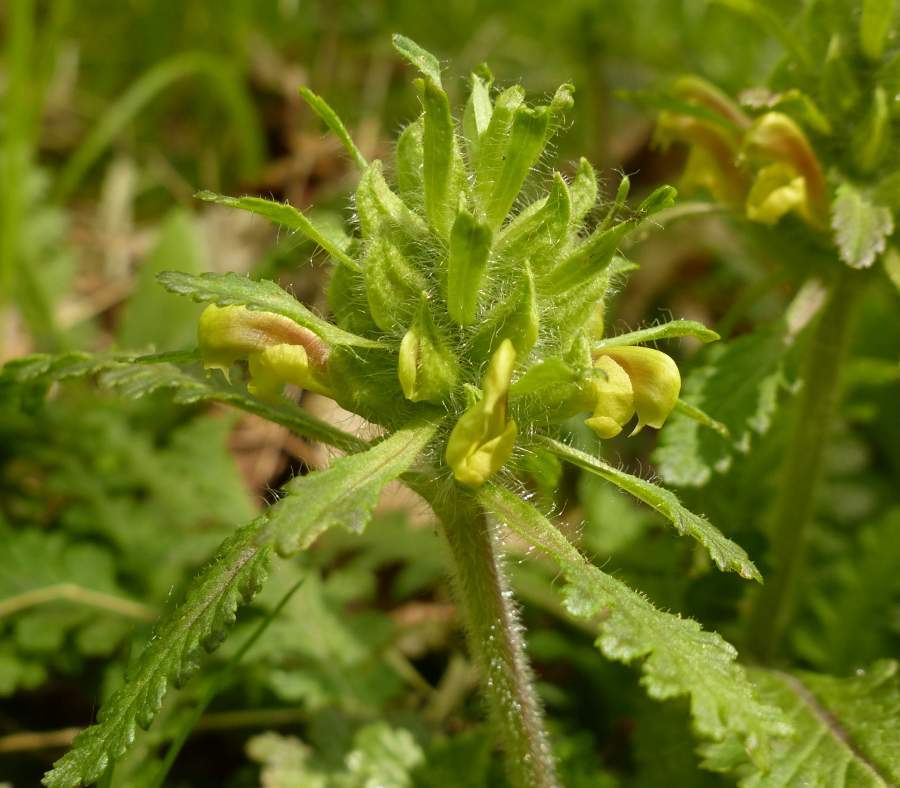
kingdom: Plantae
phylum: Tracheophyta
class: Magnoliopsida
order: Lamiales
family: Orobanchaceae
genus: Pedicularis
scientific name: Pedicularis canadensis
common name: Early lousewort
